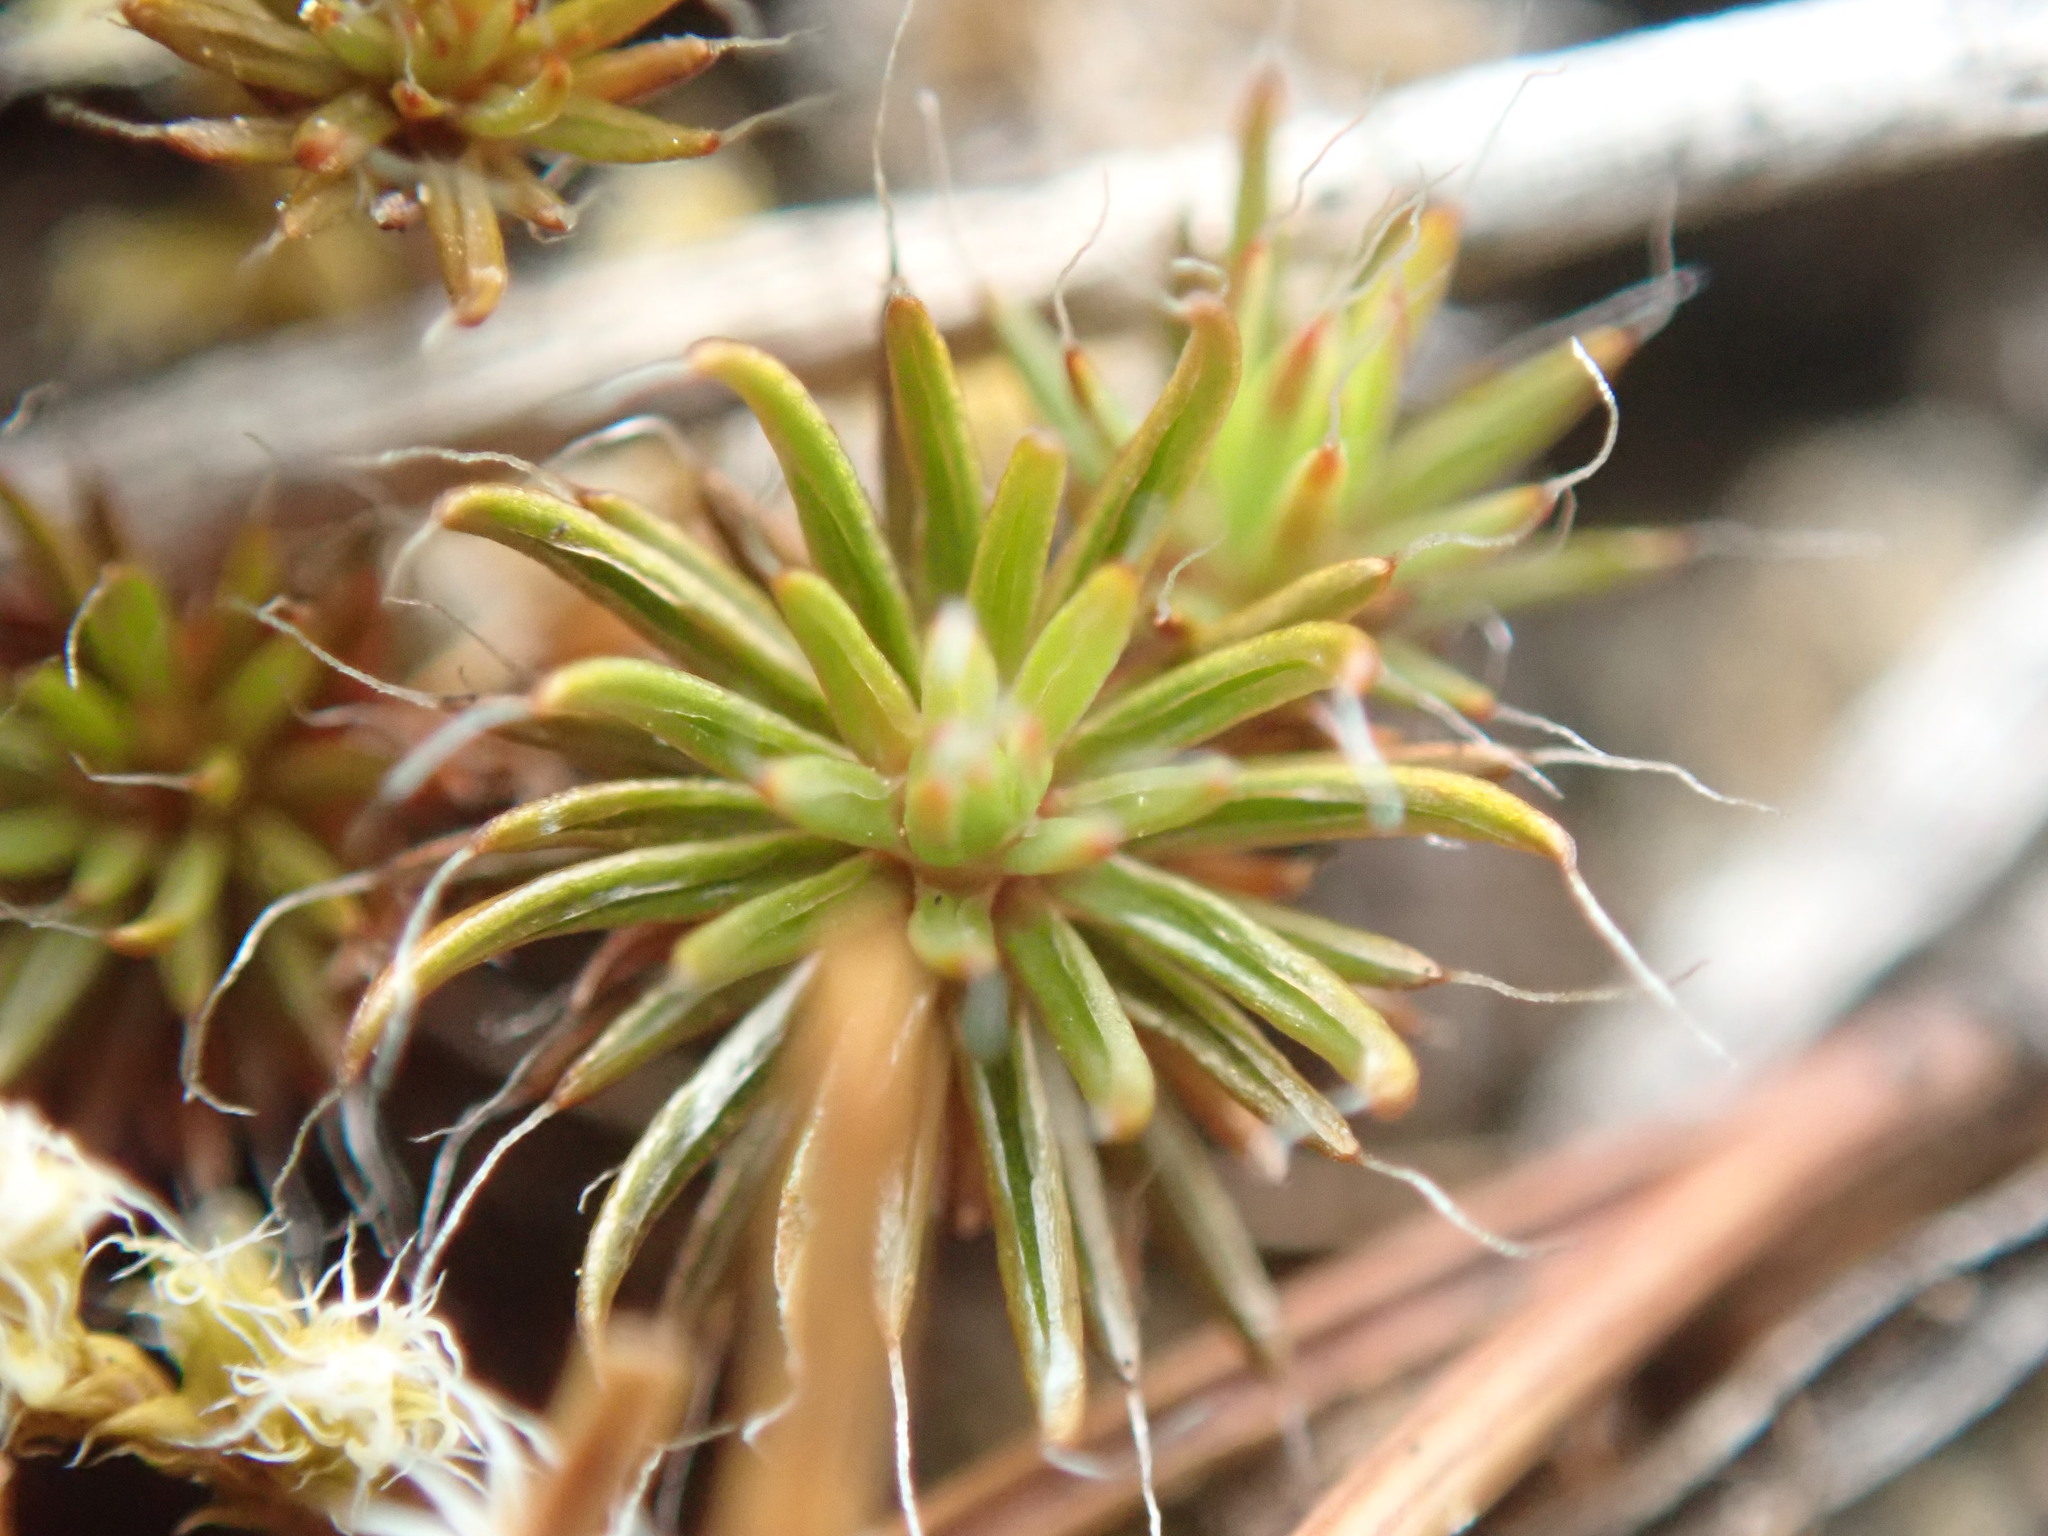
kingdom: Plantae
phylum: Bryophyta
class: Polytrichopsida
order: Polytrichales
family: Polytrichaceae
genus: Polytrichum
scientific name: Polytrichum piliferum
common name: Bristly haircap
